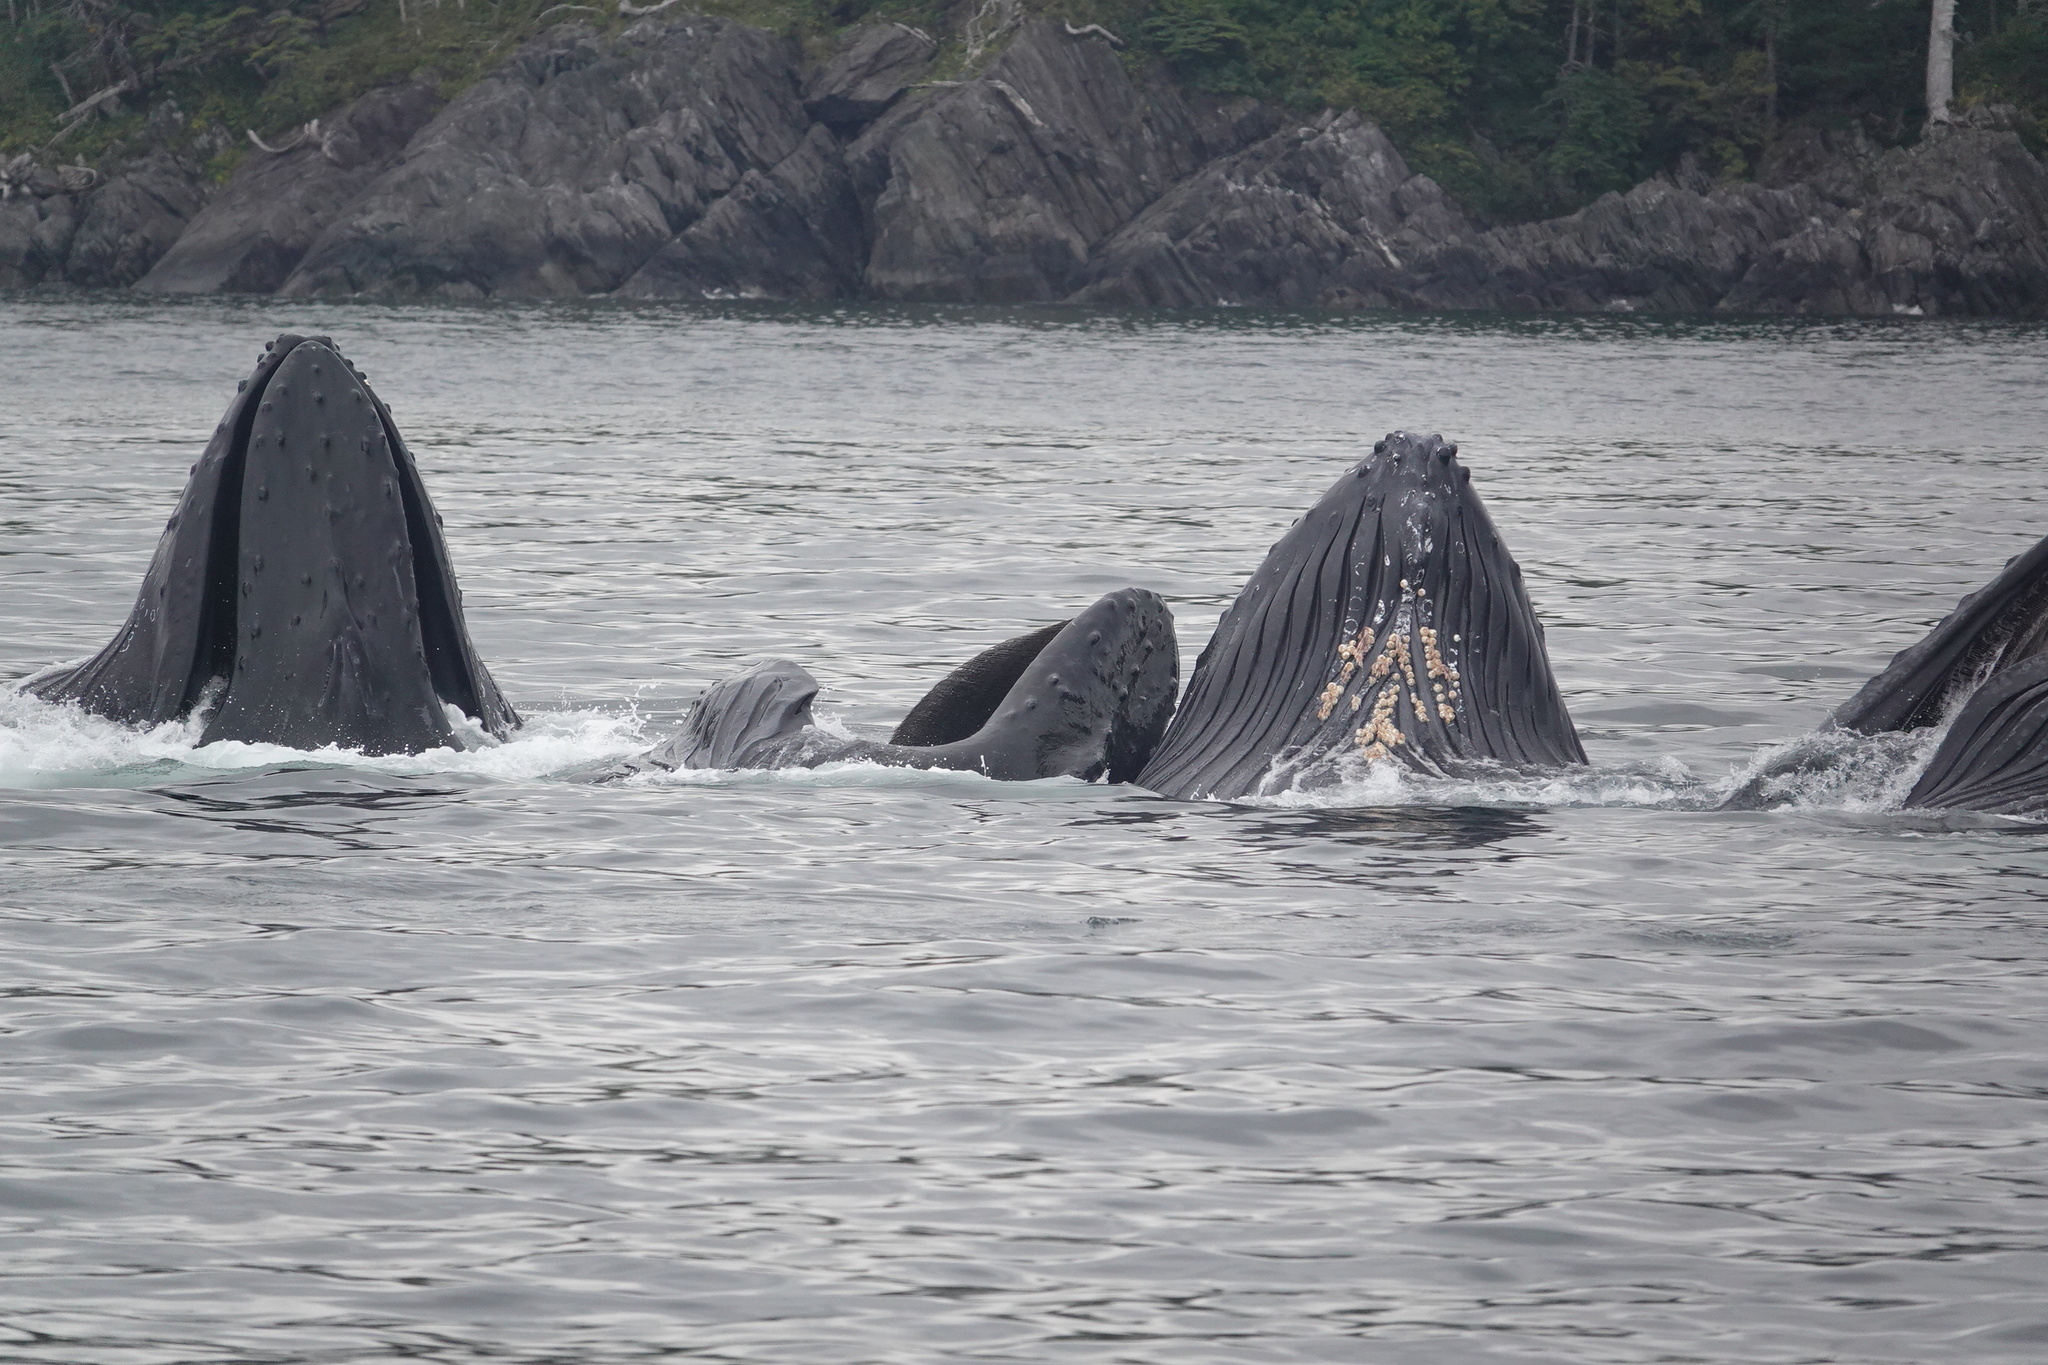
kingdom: Animalia
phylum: Chordata
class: Mammalia
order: Cetacea
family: Balaenopteridae
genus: Megaptera
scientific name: Megaptera novaeangliae
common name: Humpback whale
